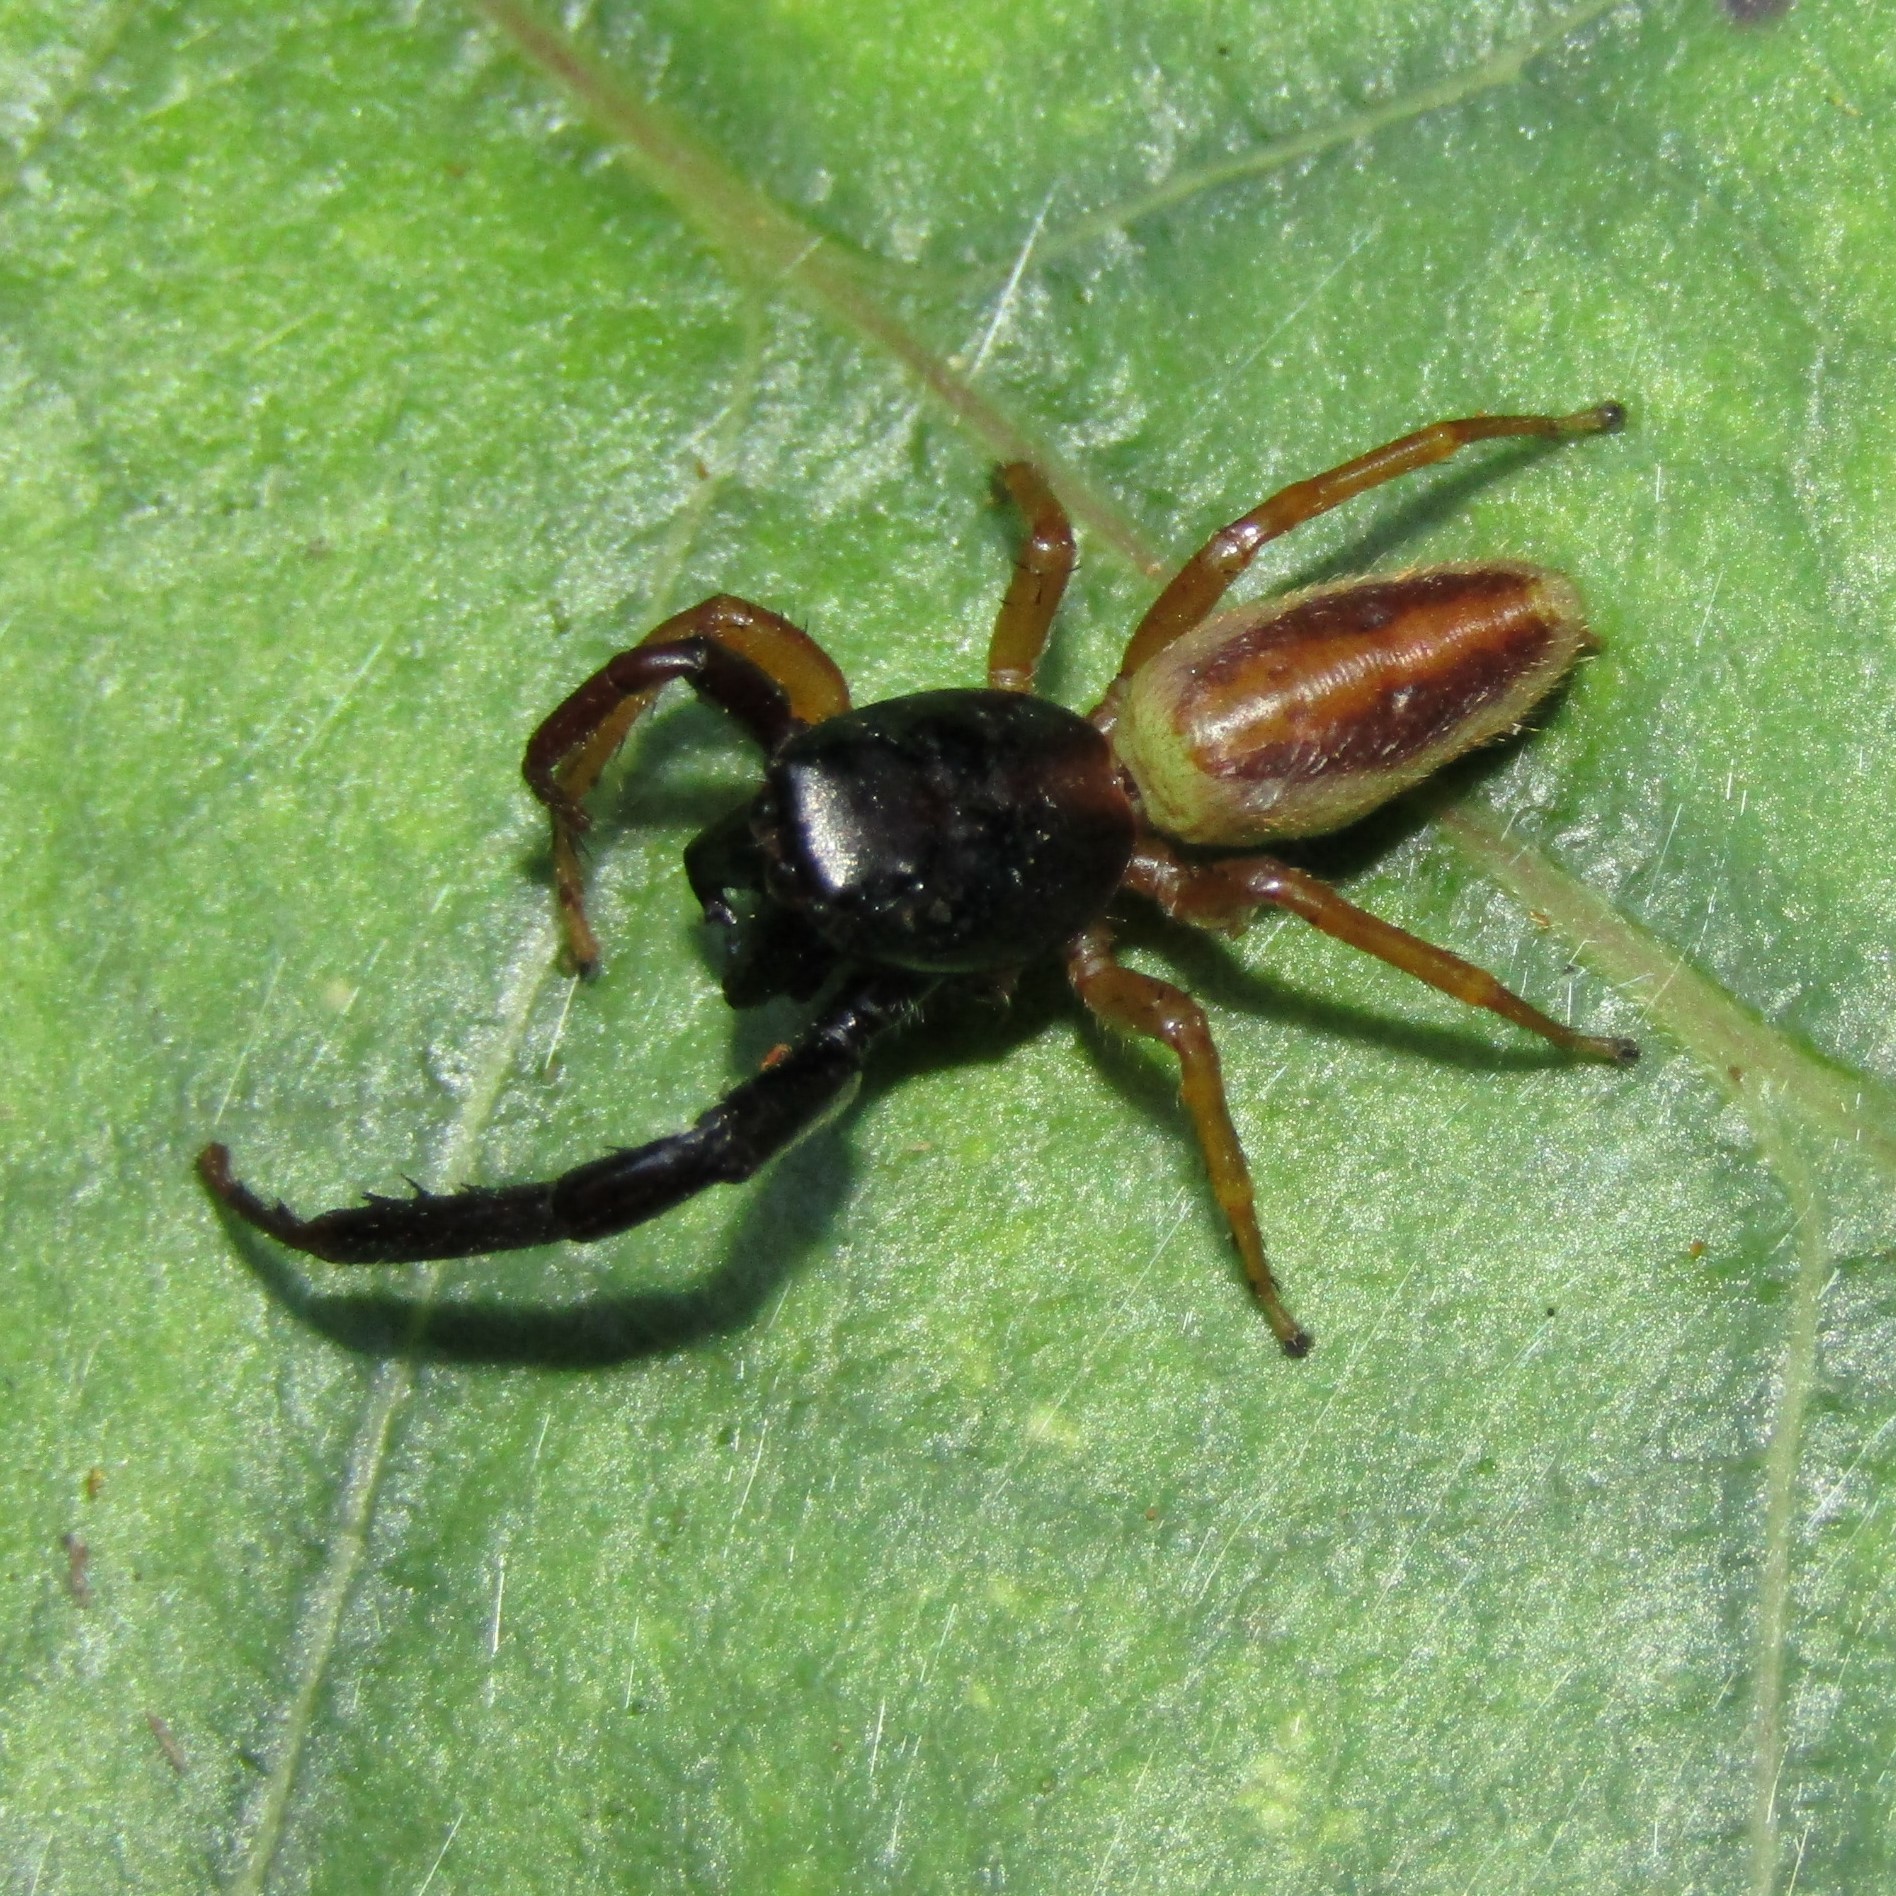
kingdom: Animalia
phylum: Arthropoda
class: Arachnida
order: Araneae
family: Salticidae
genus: Trite
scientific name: Trite planiceps
